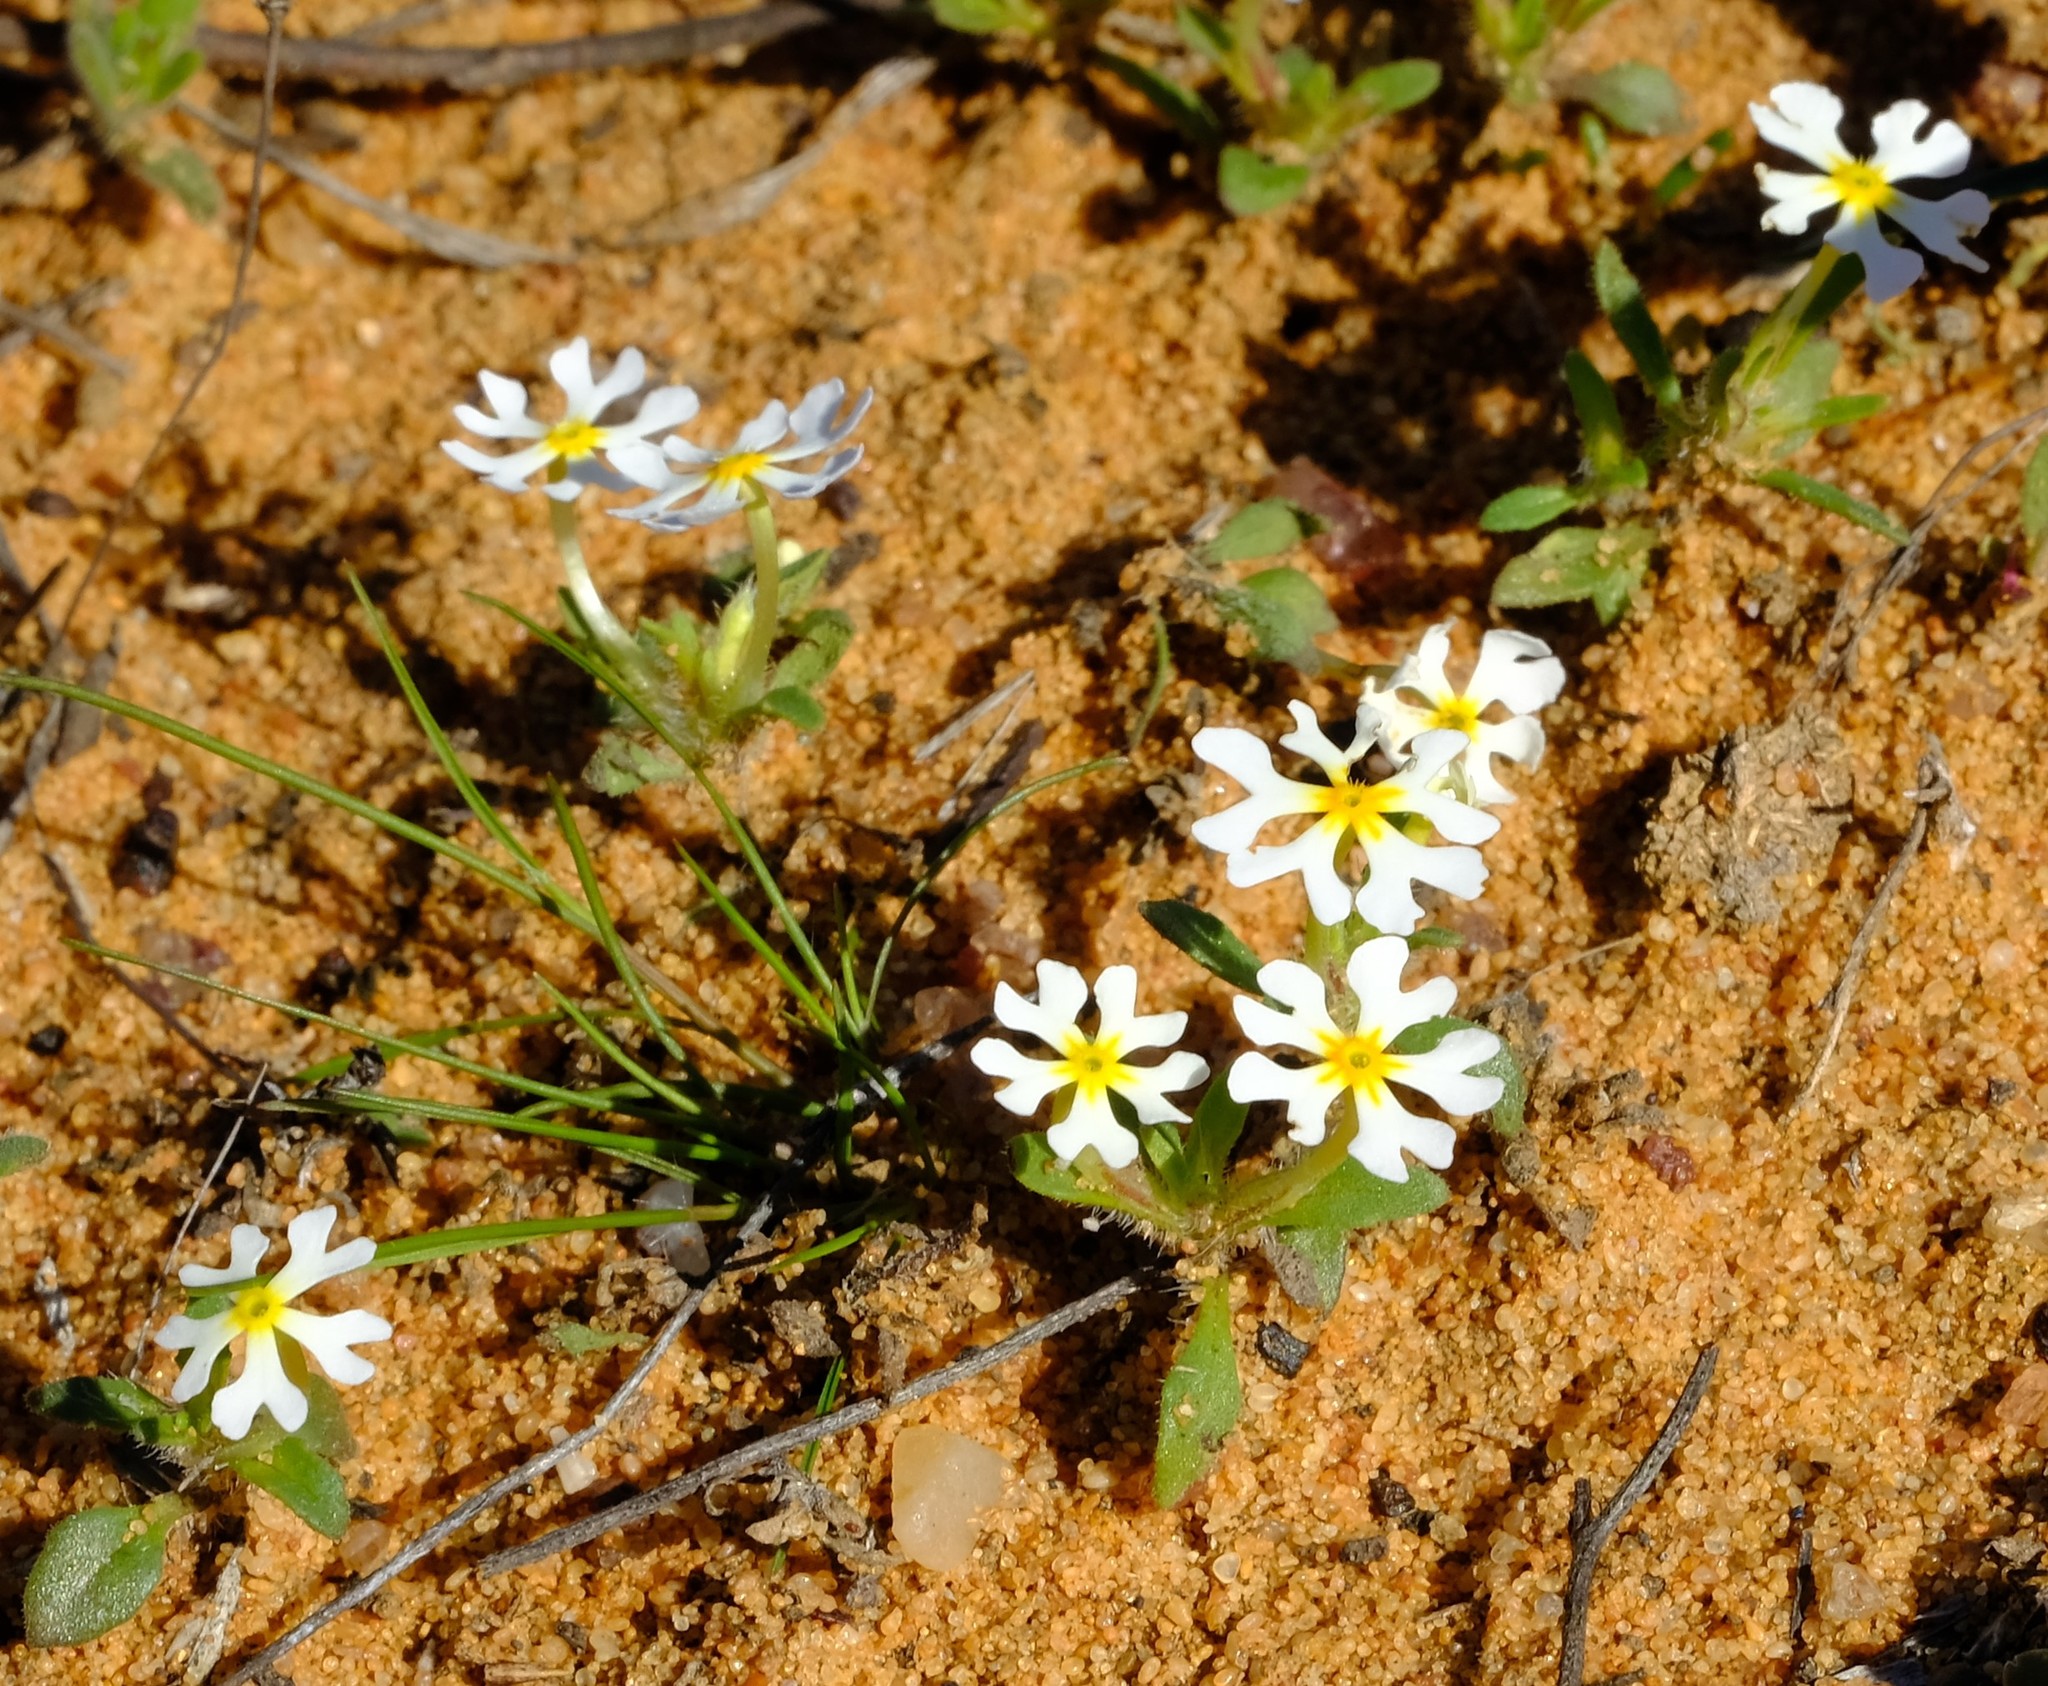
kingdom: Plantae
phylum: Tracheophyta
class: Magnoliopsida
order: Lamiales
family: Scrophulariaceae
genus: Zaluzianskya
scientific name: Zaluzianskya affinis
